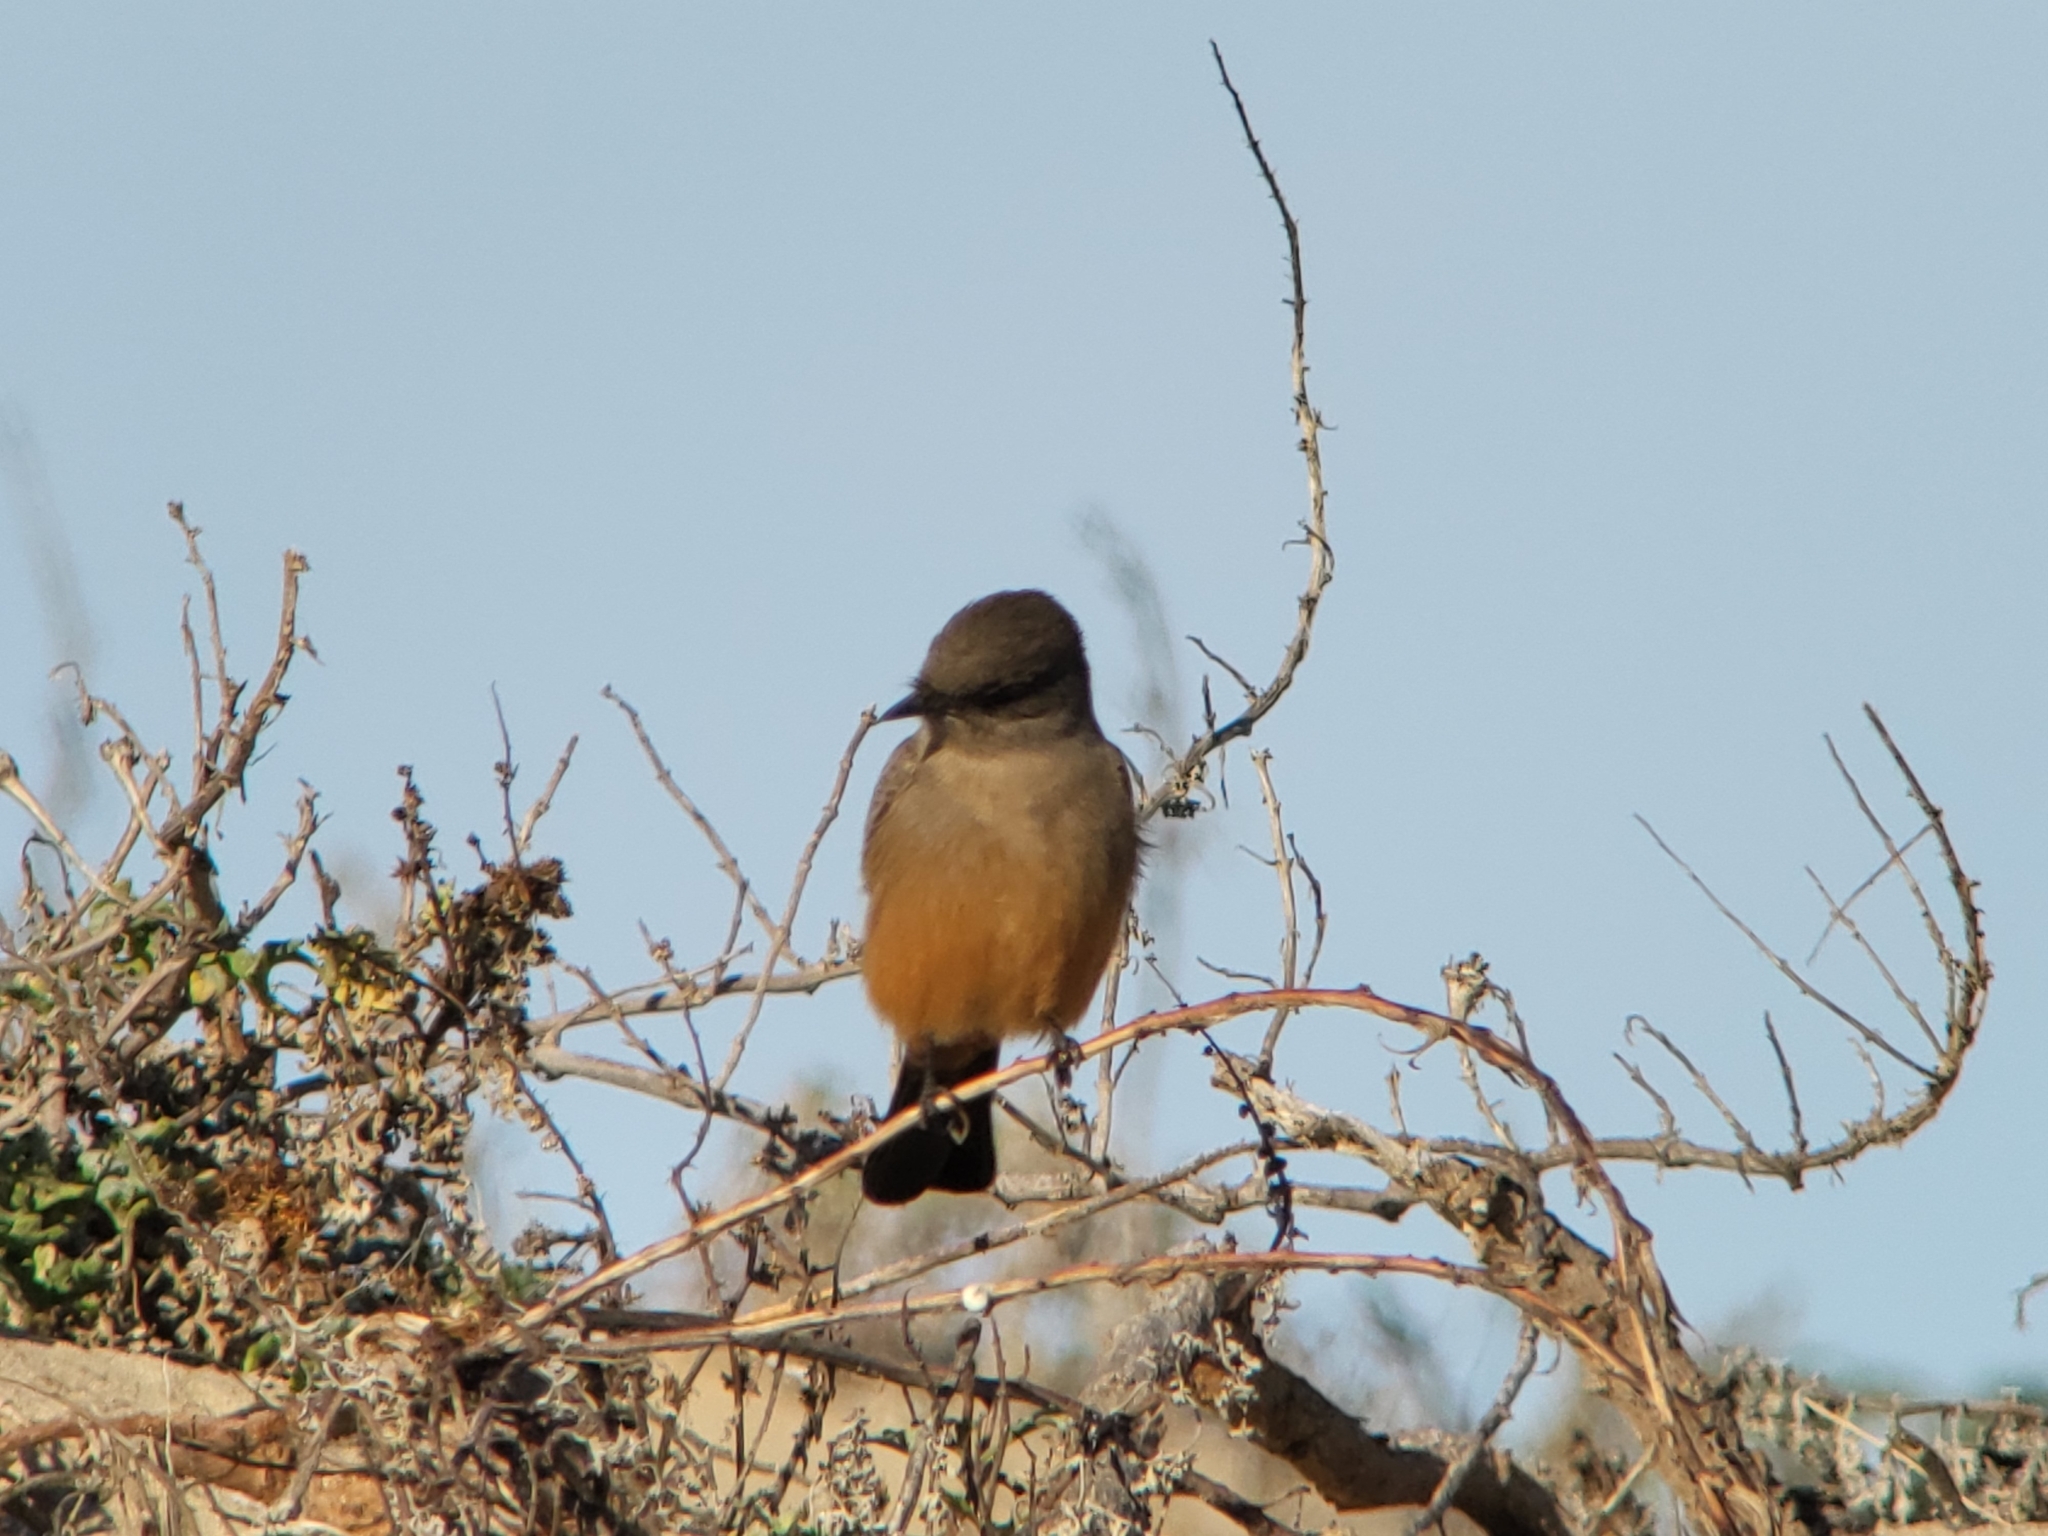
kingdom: Animalia
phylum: Chordata
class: Aves
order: Passeriformes
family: Tyrannidae
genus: Sayornis
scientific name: Sayornis saya
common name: Say's phoebe
